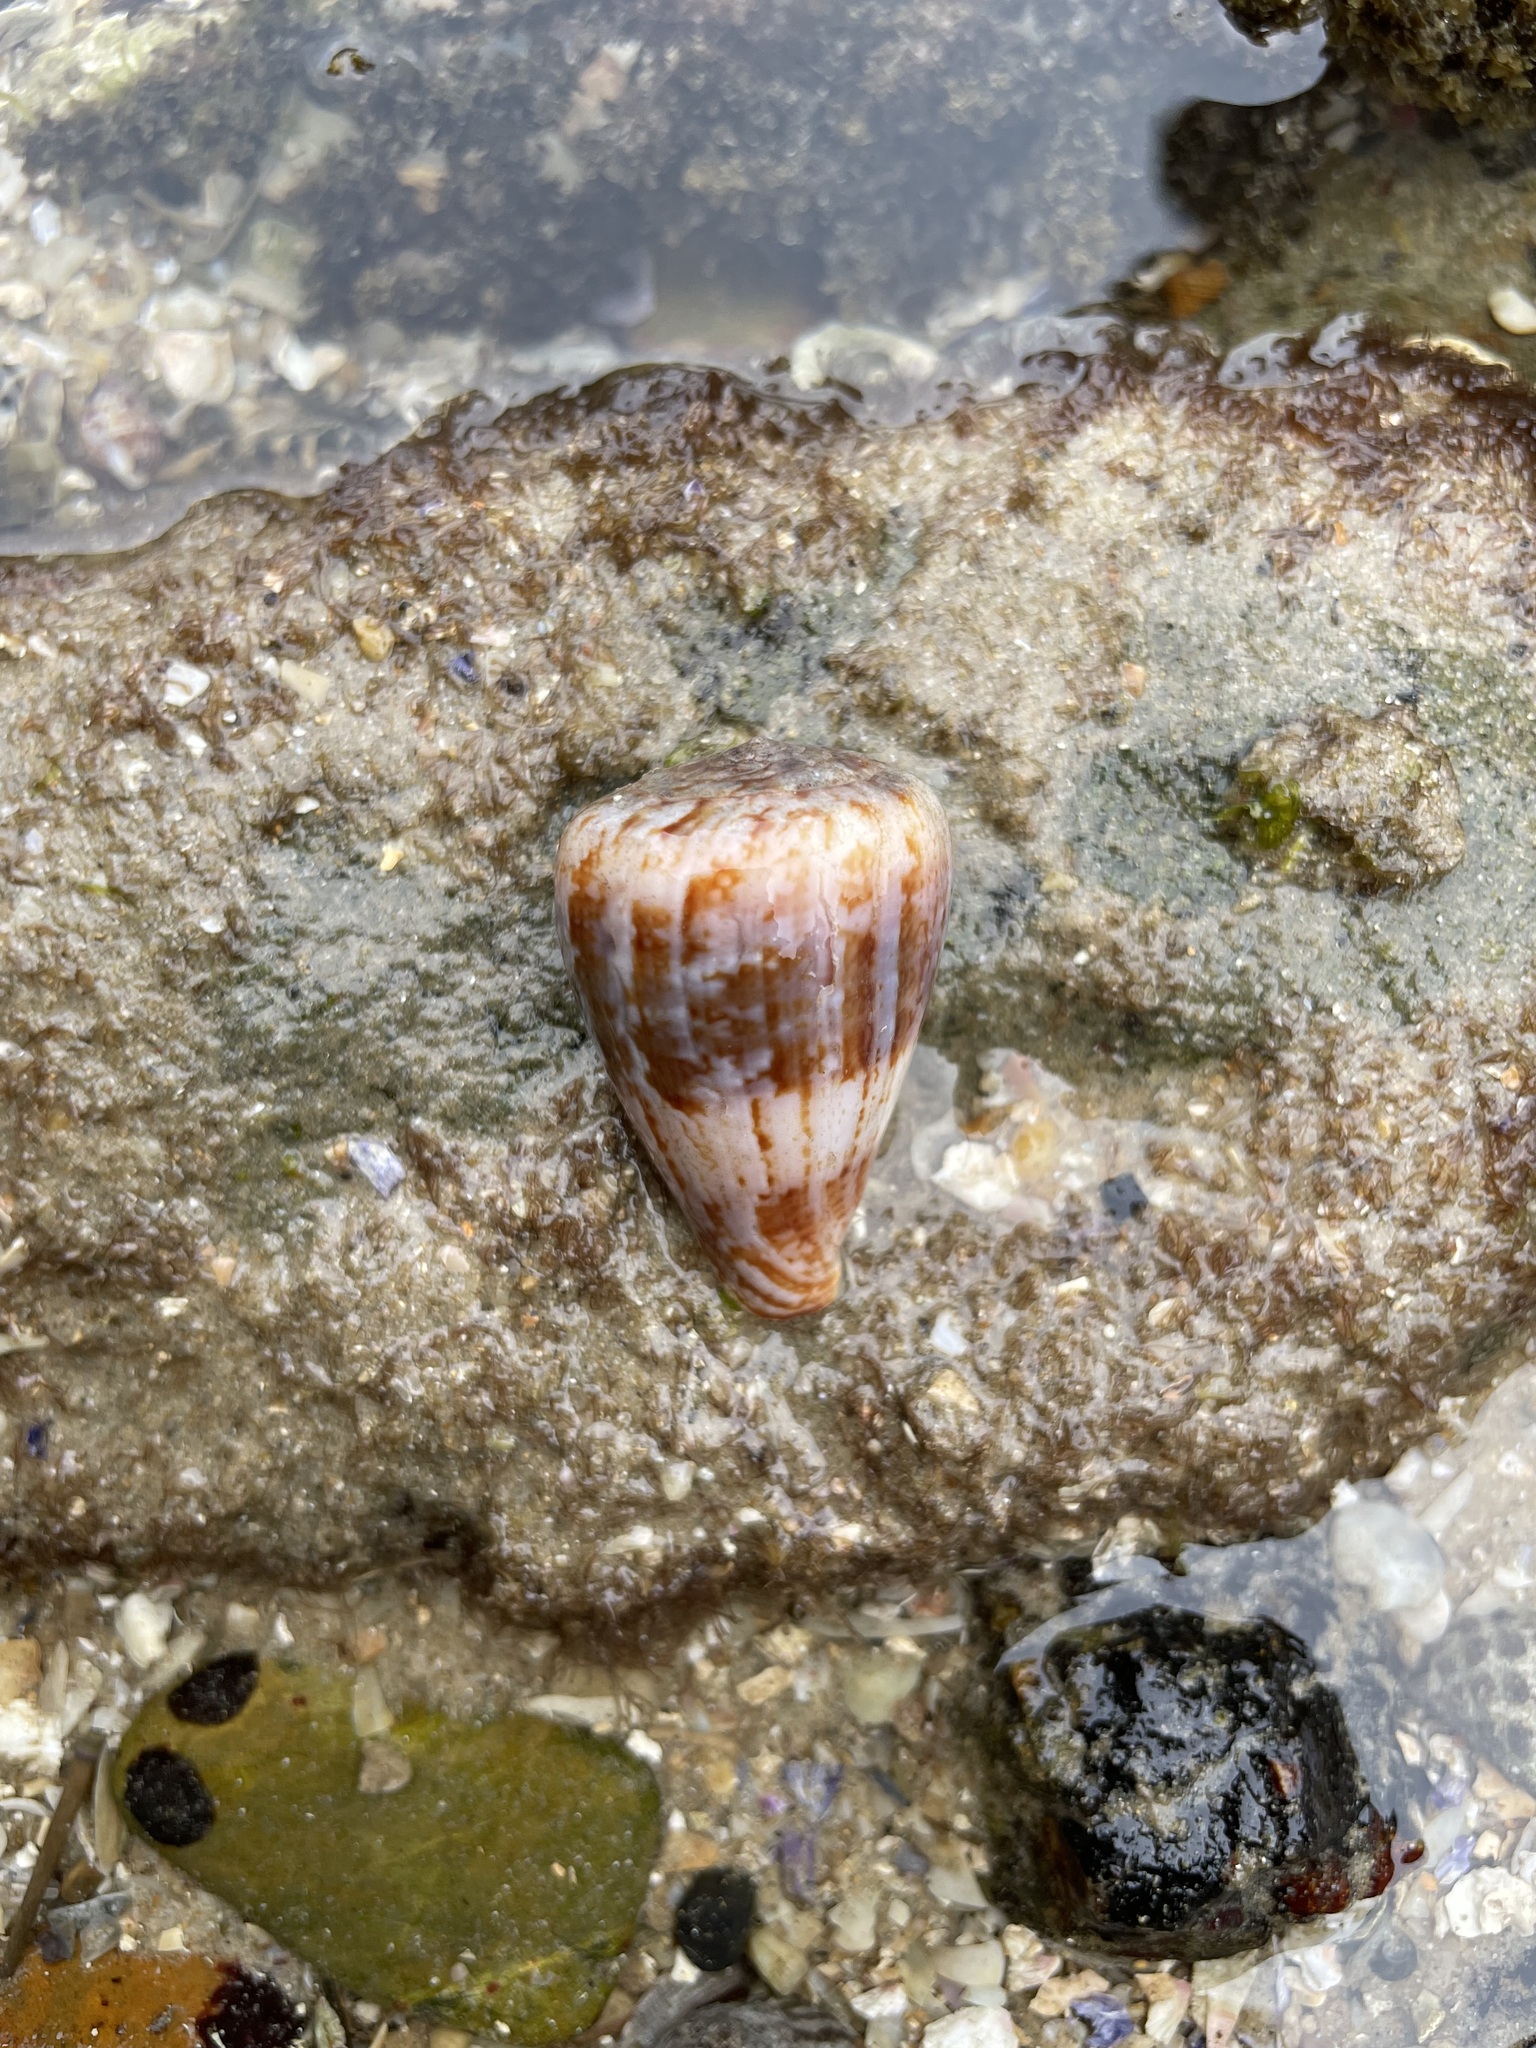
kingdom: Animalia
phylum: Mollusca
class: Gastropoda
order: Neogastropoda
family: Conidae
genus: Conus
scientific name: Conus papilliferus
